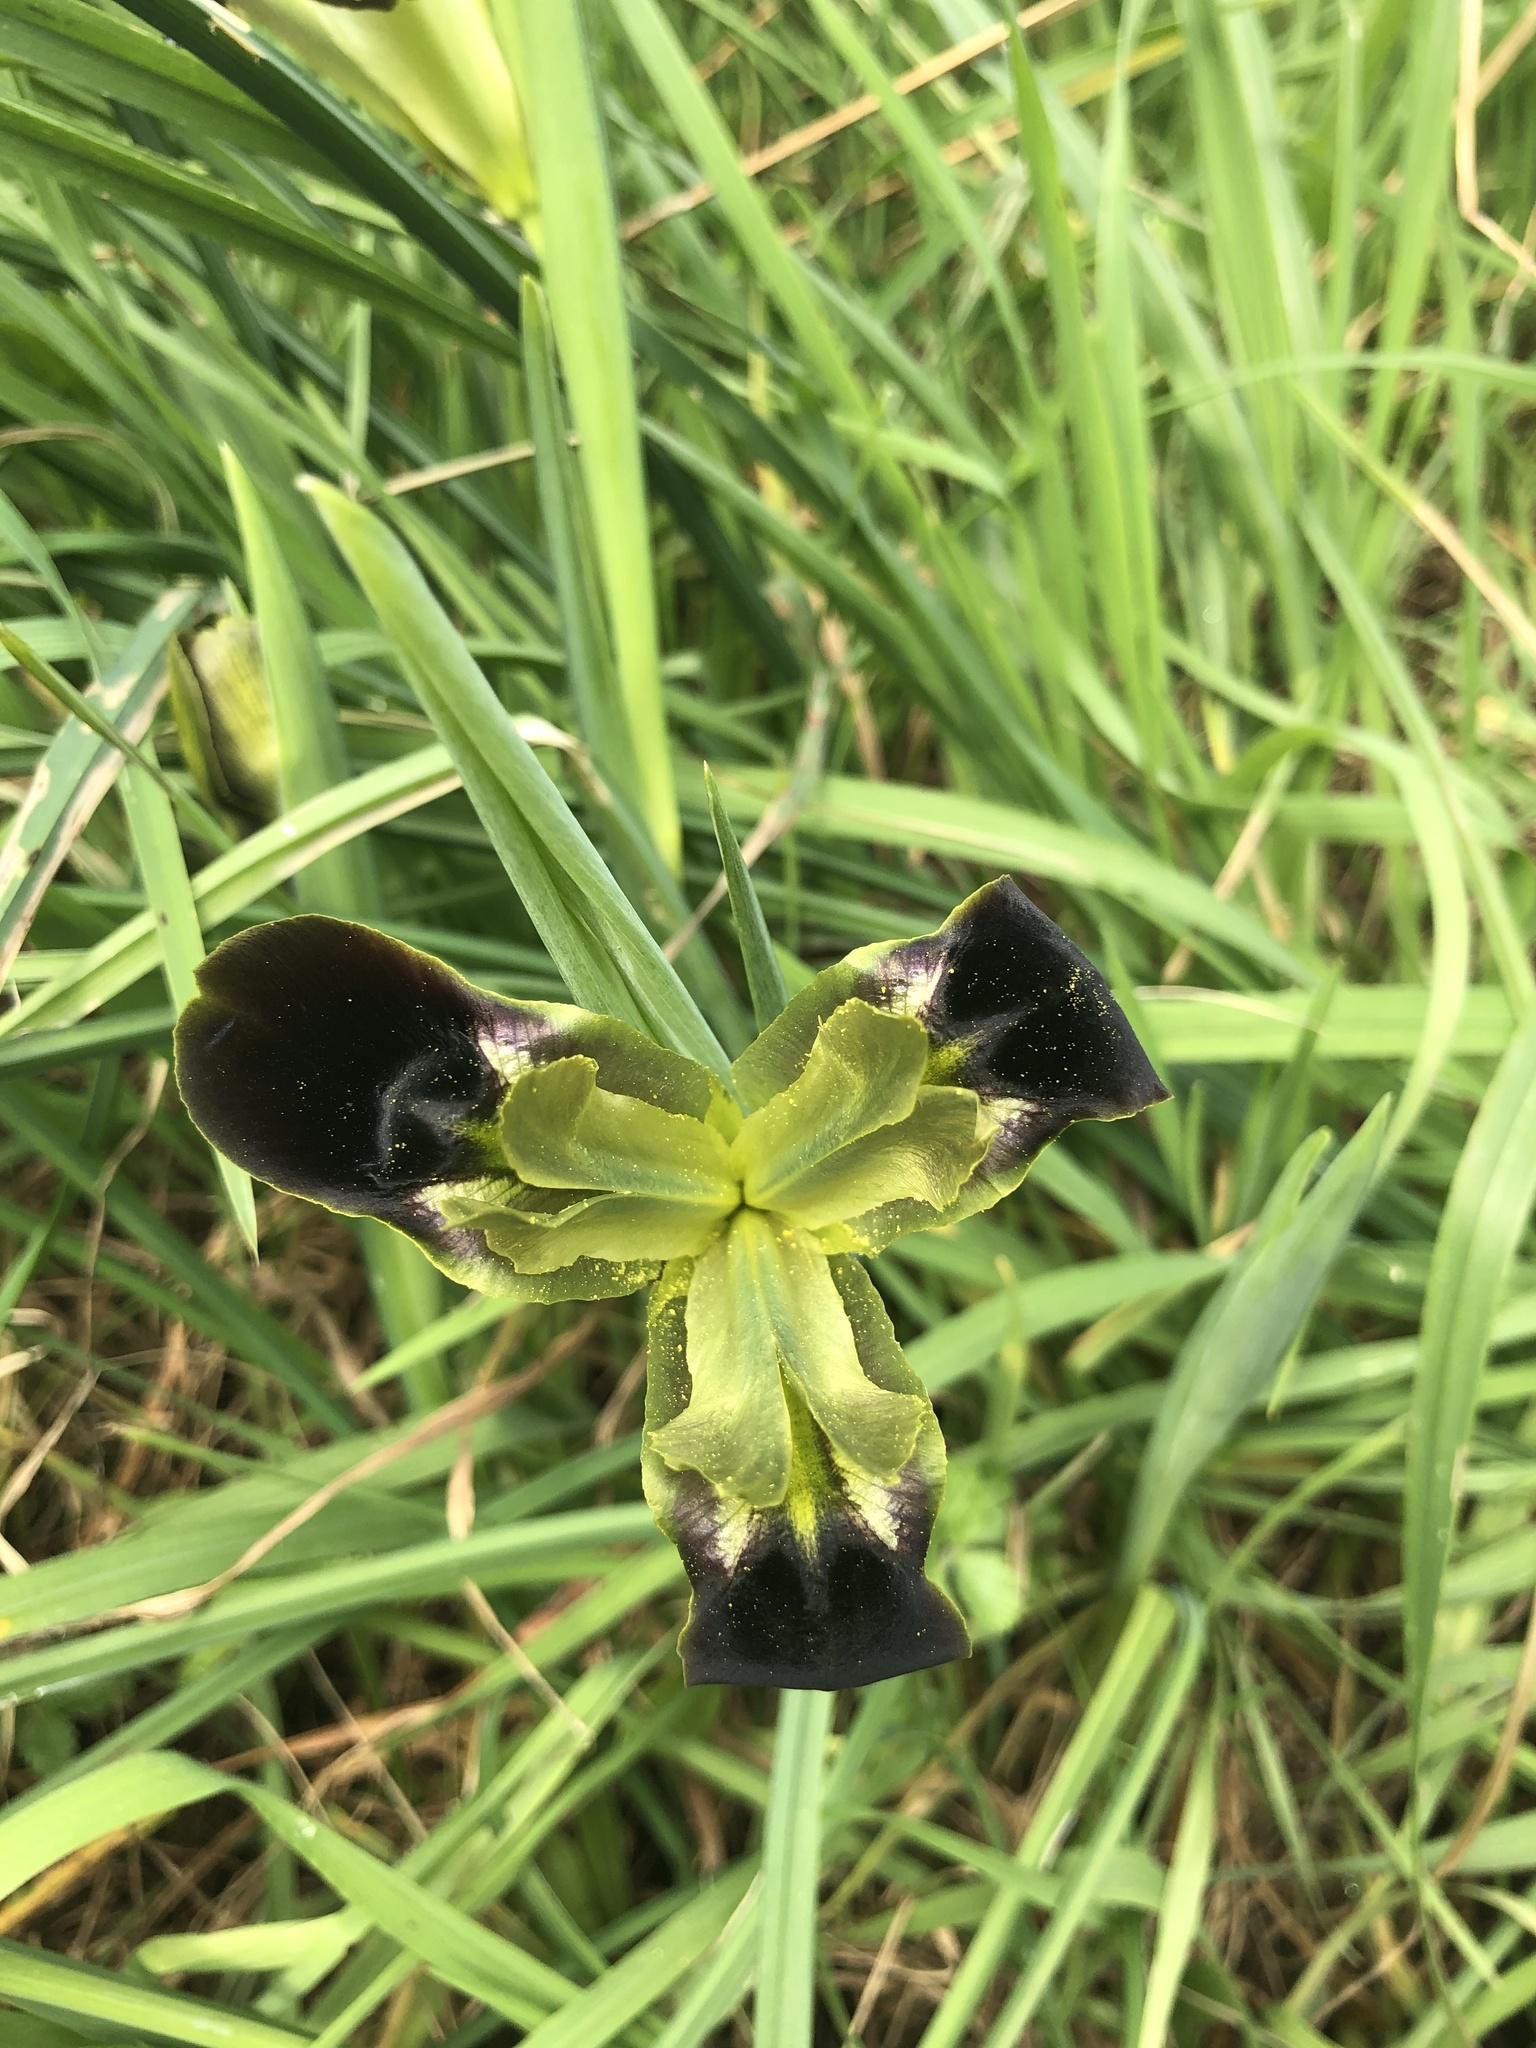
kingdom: Plantae
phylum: Tracheophyta
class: Liliopsida
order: Asparagales
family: Iridaceae
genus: Iris
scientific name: Iris tuberosa
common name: Snake's-head iris
